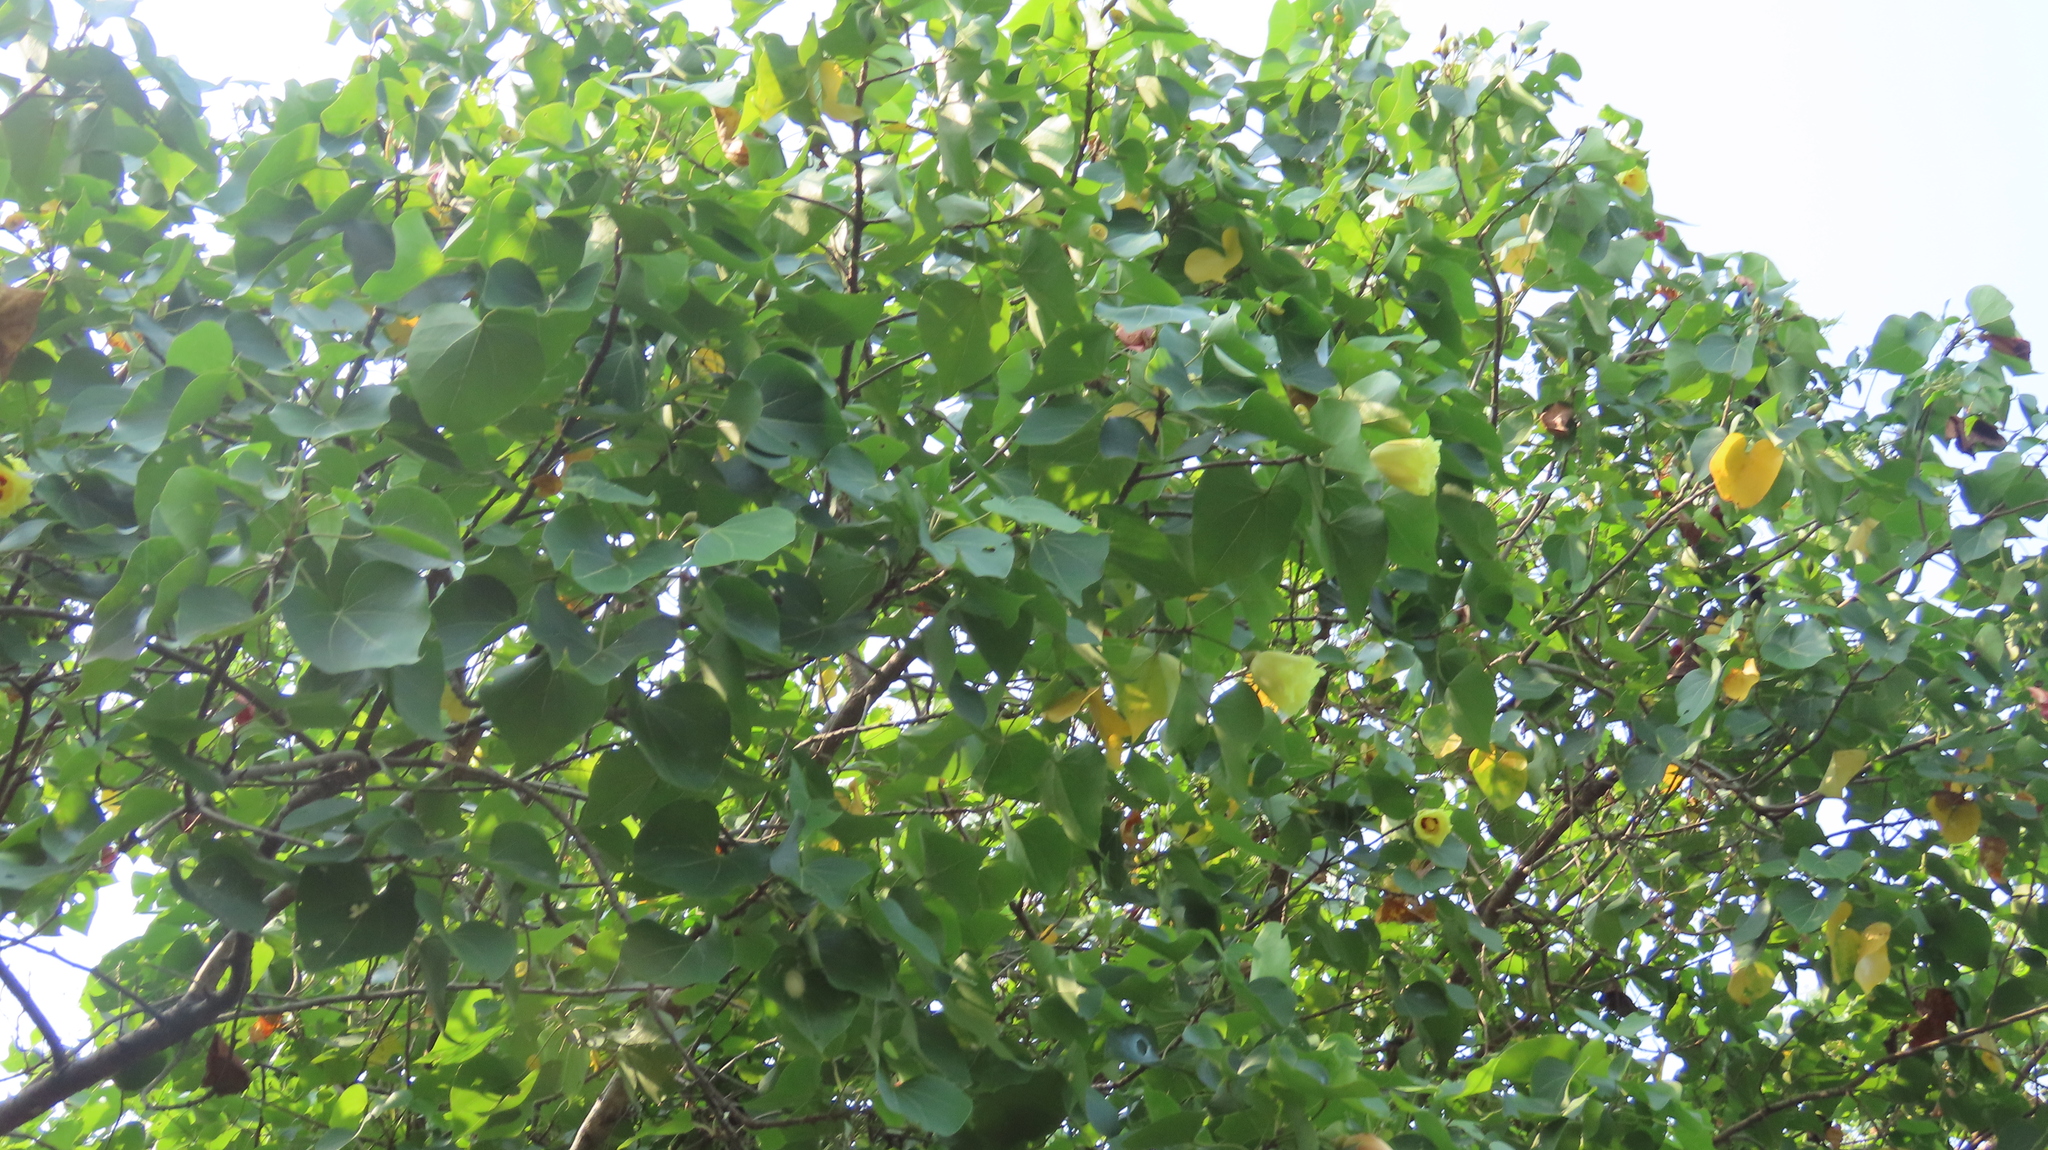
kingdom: Plantae
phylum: Tracheophyta
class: Magnoliopsida
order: Malvales
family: Malvaceae
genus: Thespesia
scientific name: Thespesia populnea
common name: Seaside mahoe
